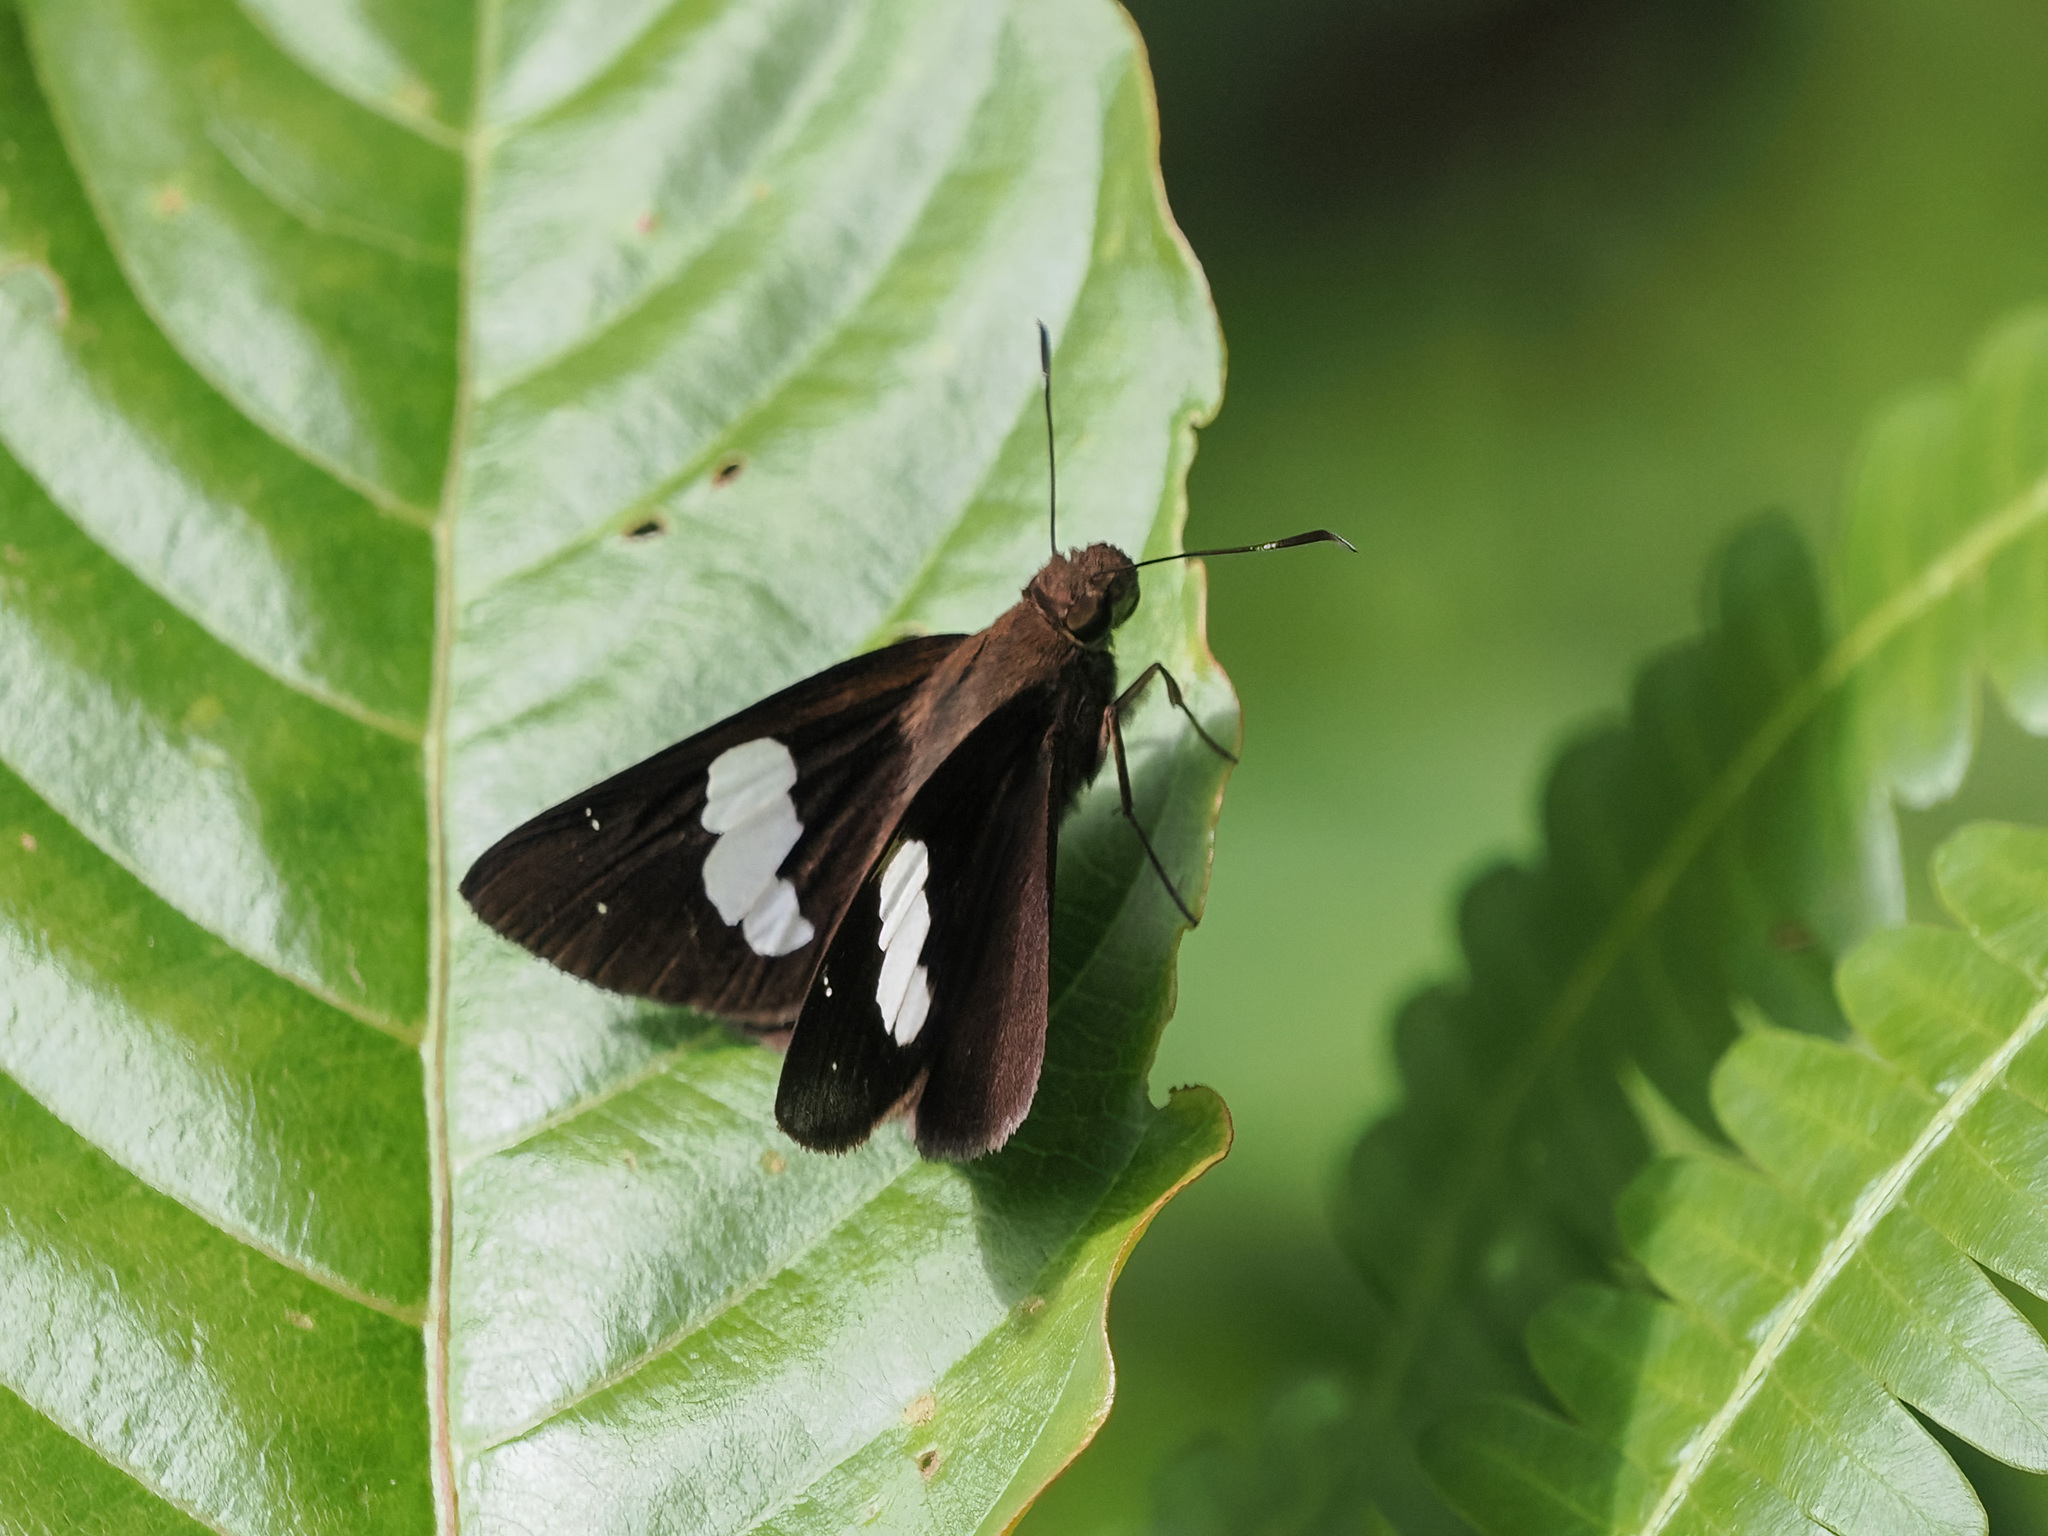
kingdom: Animalia
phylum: Arthropoda
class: Insecta
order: Lepidoptera
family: Hesperiidae
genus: Notocrypta
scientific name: Notocrypta feisthamelii
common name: Spotted demon
